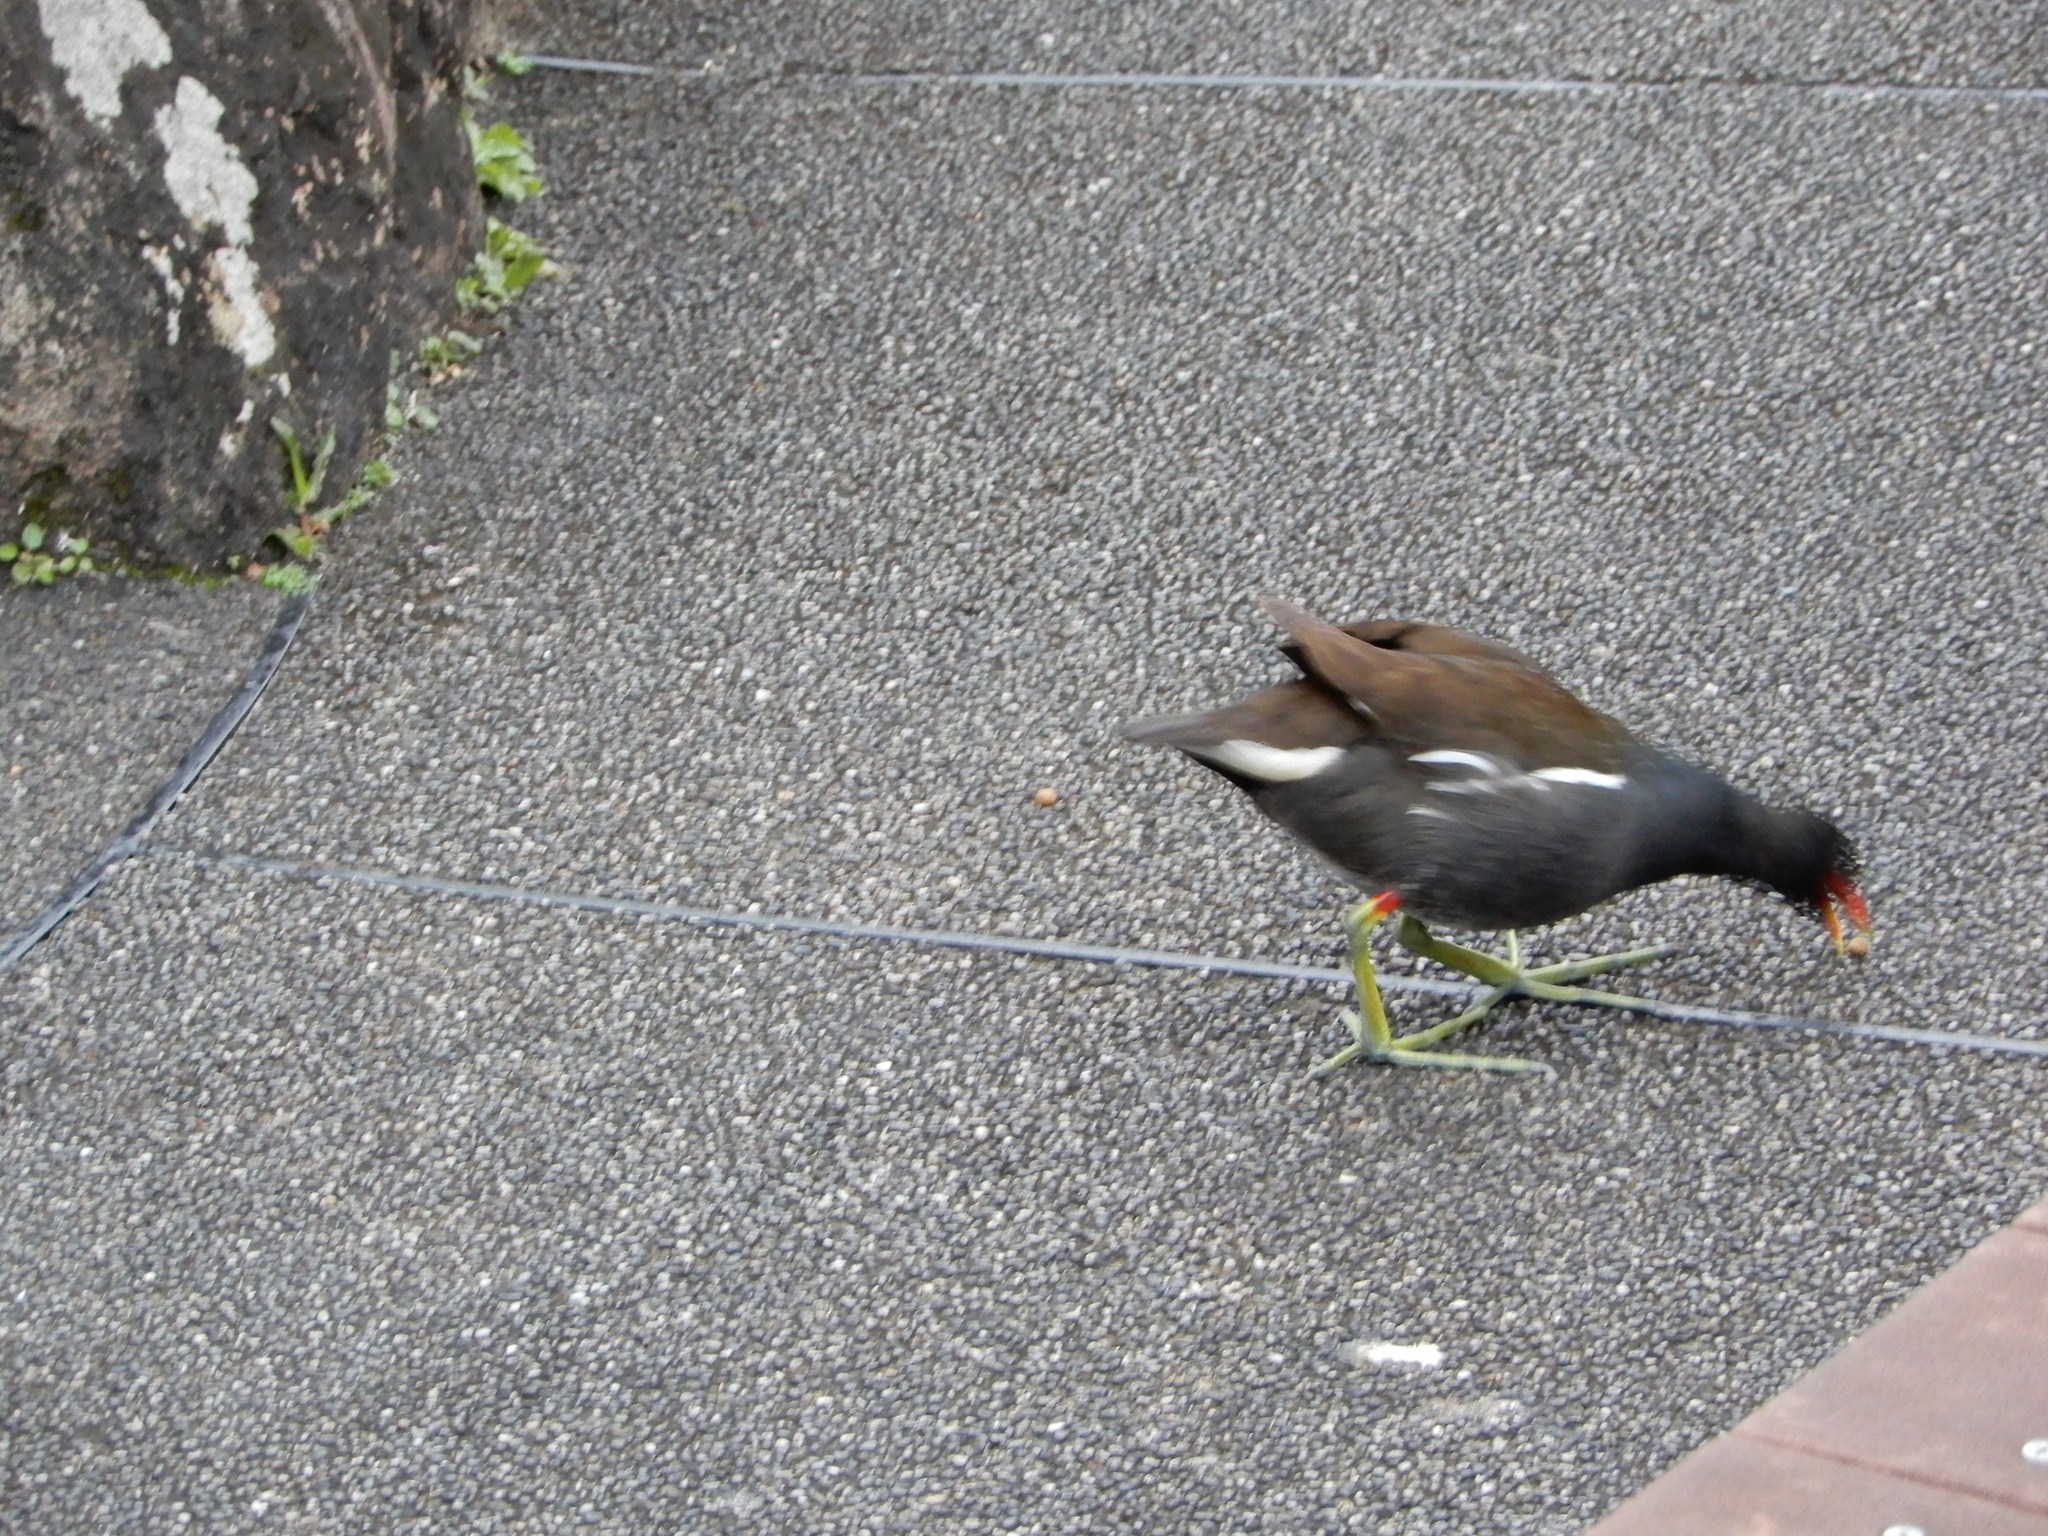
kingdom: Animalia
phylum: Chordata
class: Aves
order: Gruiformes
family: Rallidae
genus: Gallinula
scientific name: Gallinula chloropus
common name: Common moorhen
